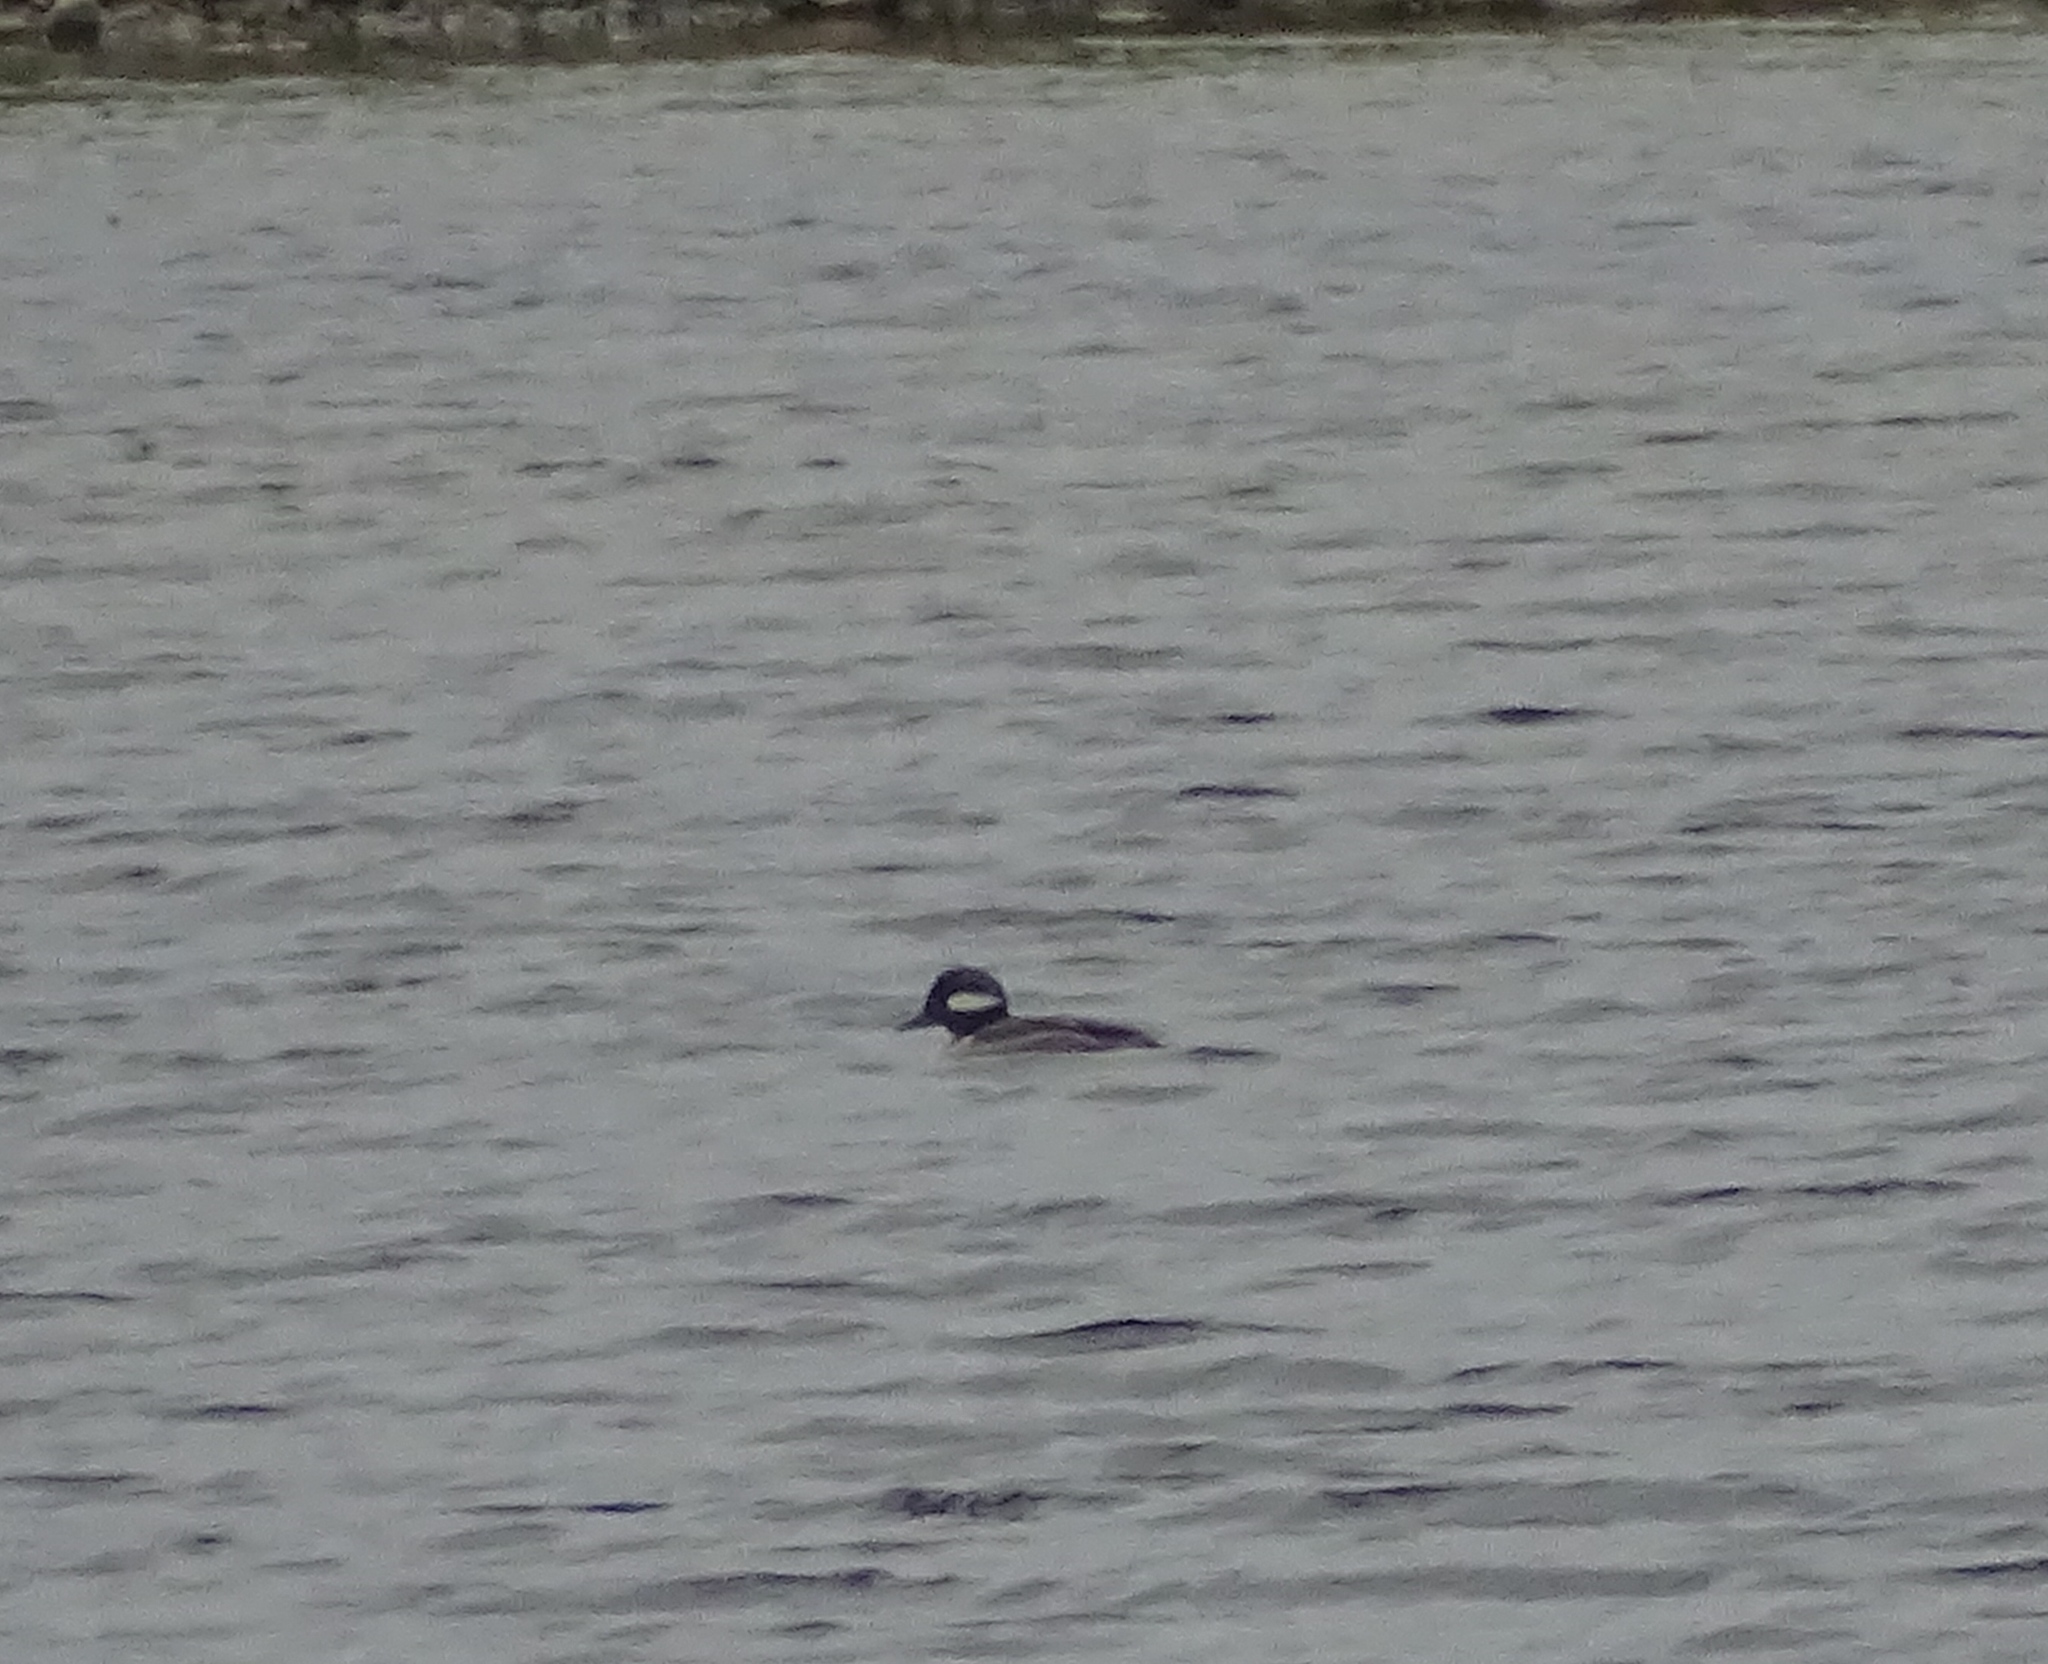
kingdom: Animalia
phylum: Chordata
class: Aves
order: Anseriformes
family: Anatidae
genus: Bucephala
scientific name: Bucephala albeola
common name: Bufflehead
